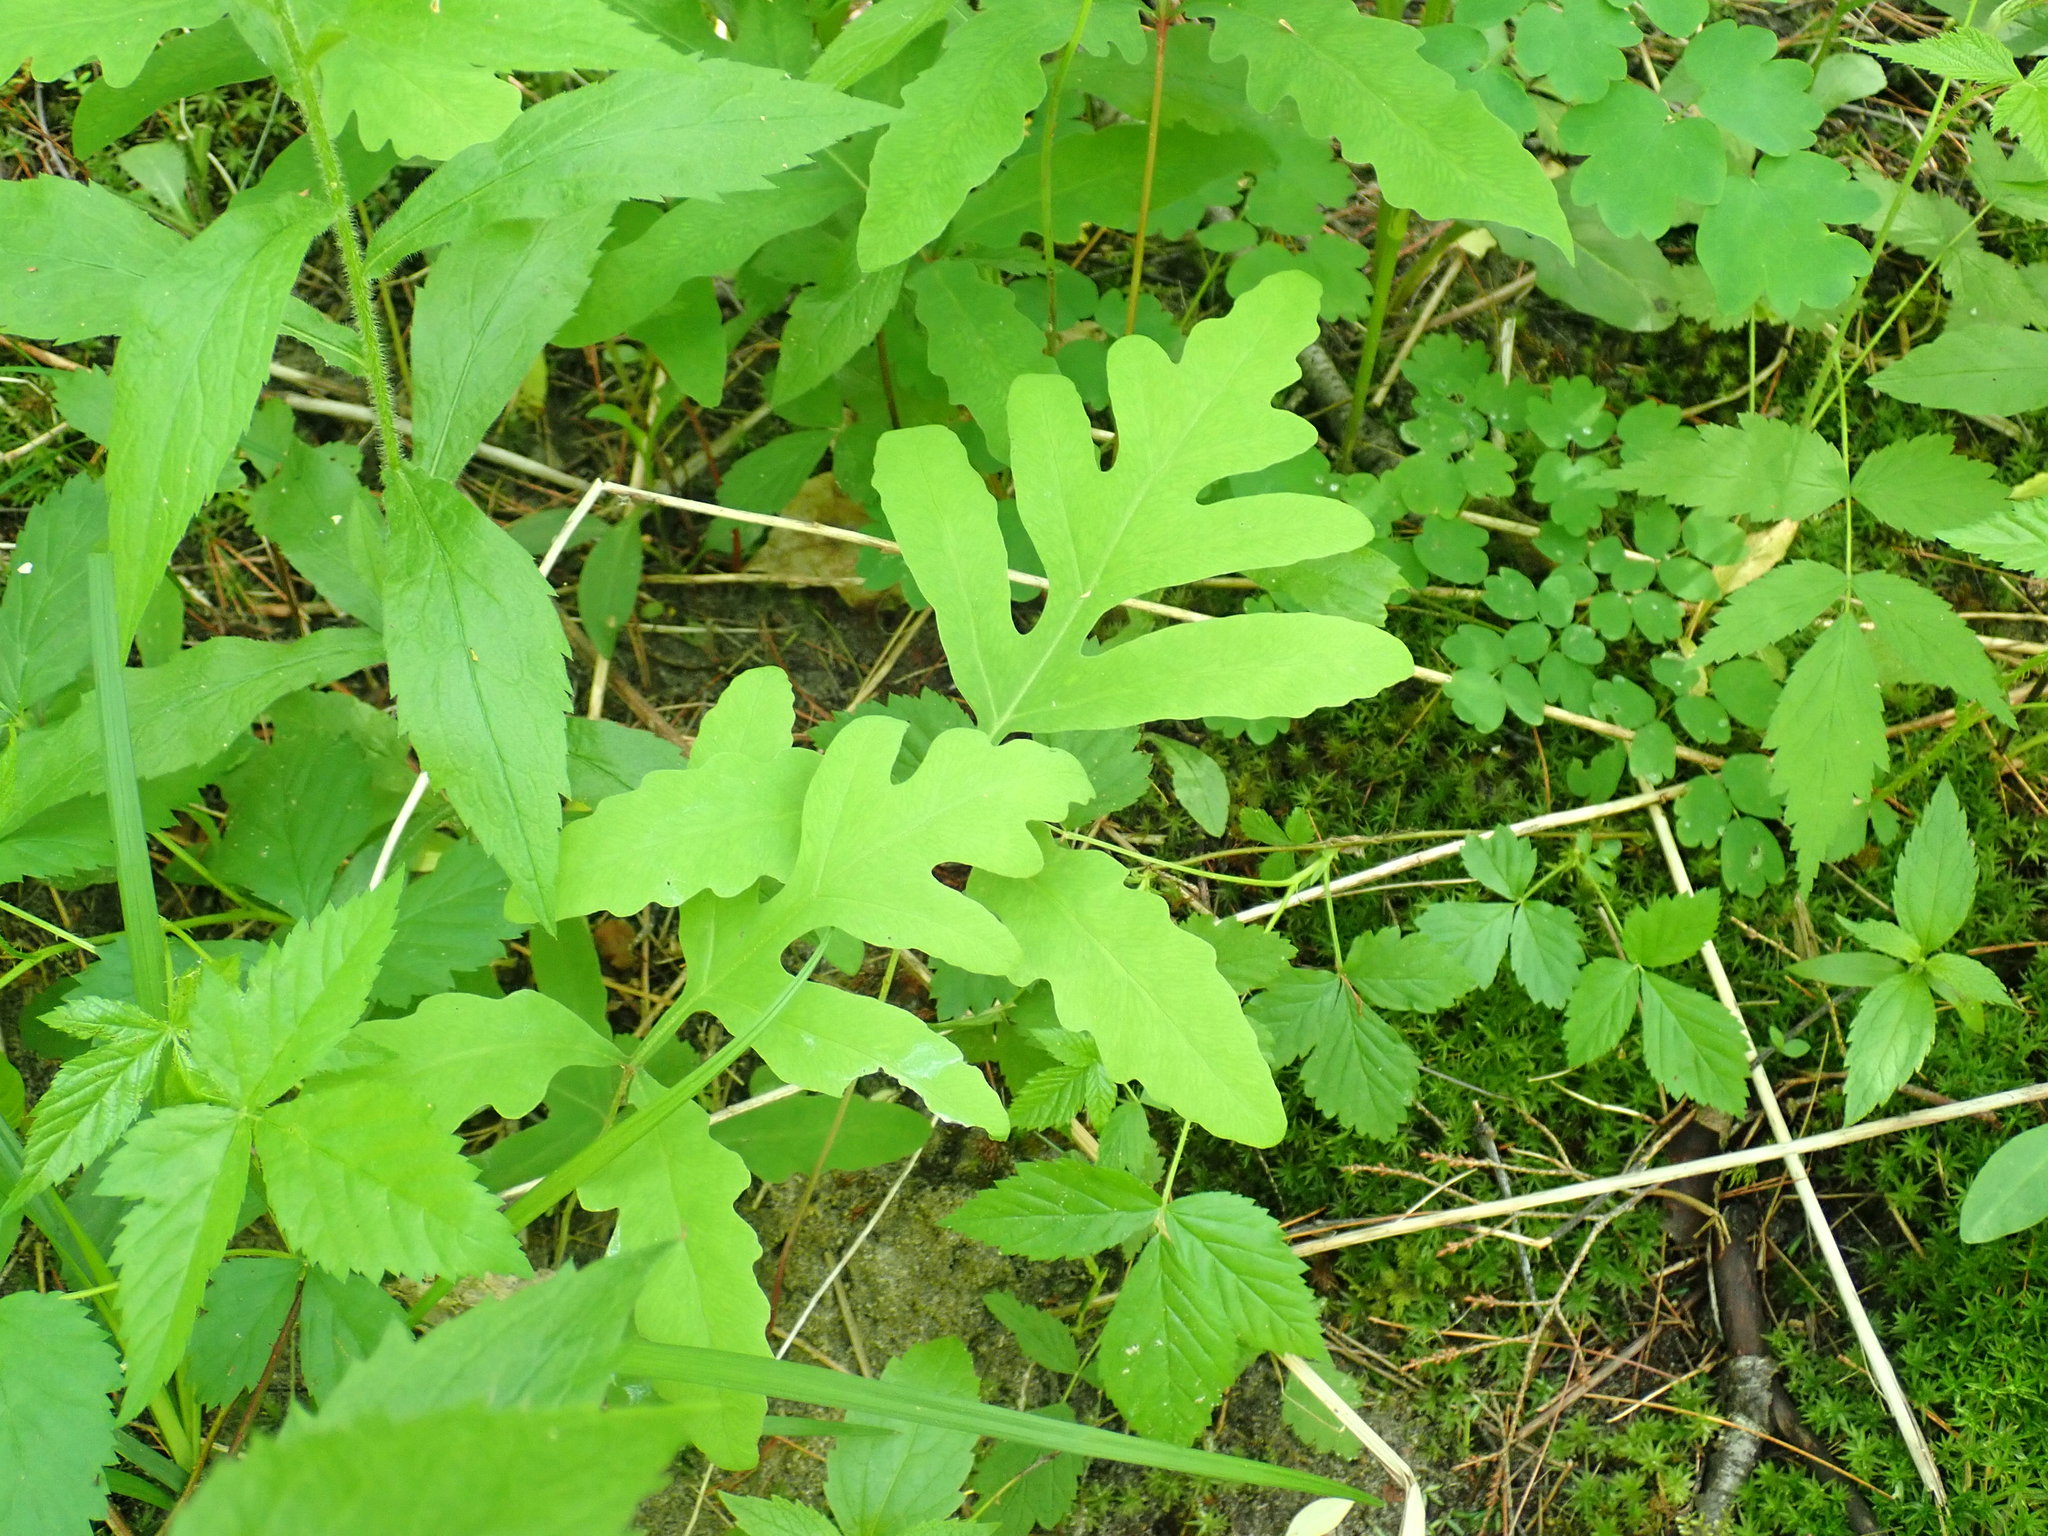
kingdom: Plantae
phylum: Tracheophyta
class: Polypodiopsida
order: Polypodiales
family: Onocleaceae
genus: Onoclea
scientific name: Onoclea sensibilis
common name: Sensitive fern
